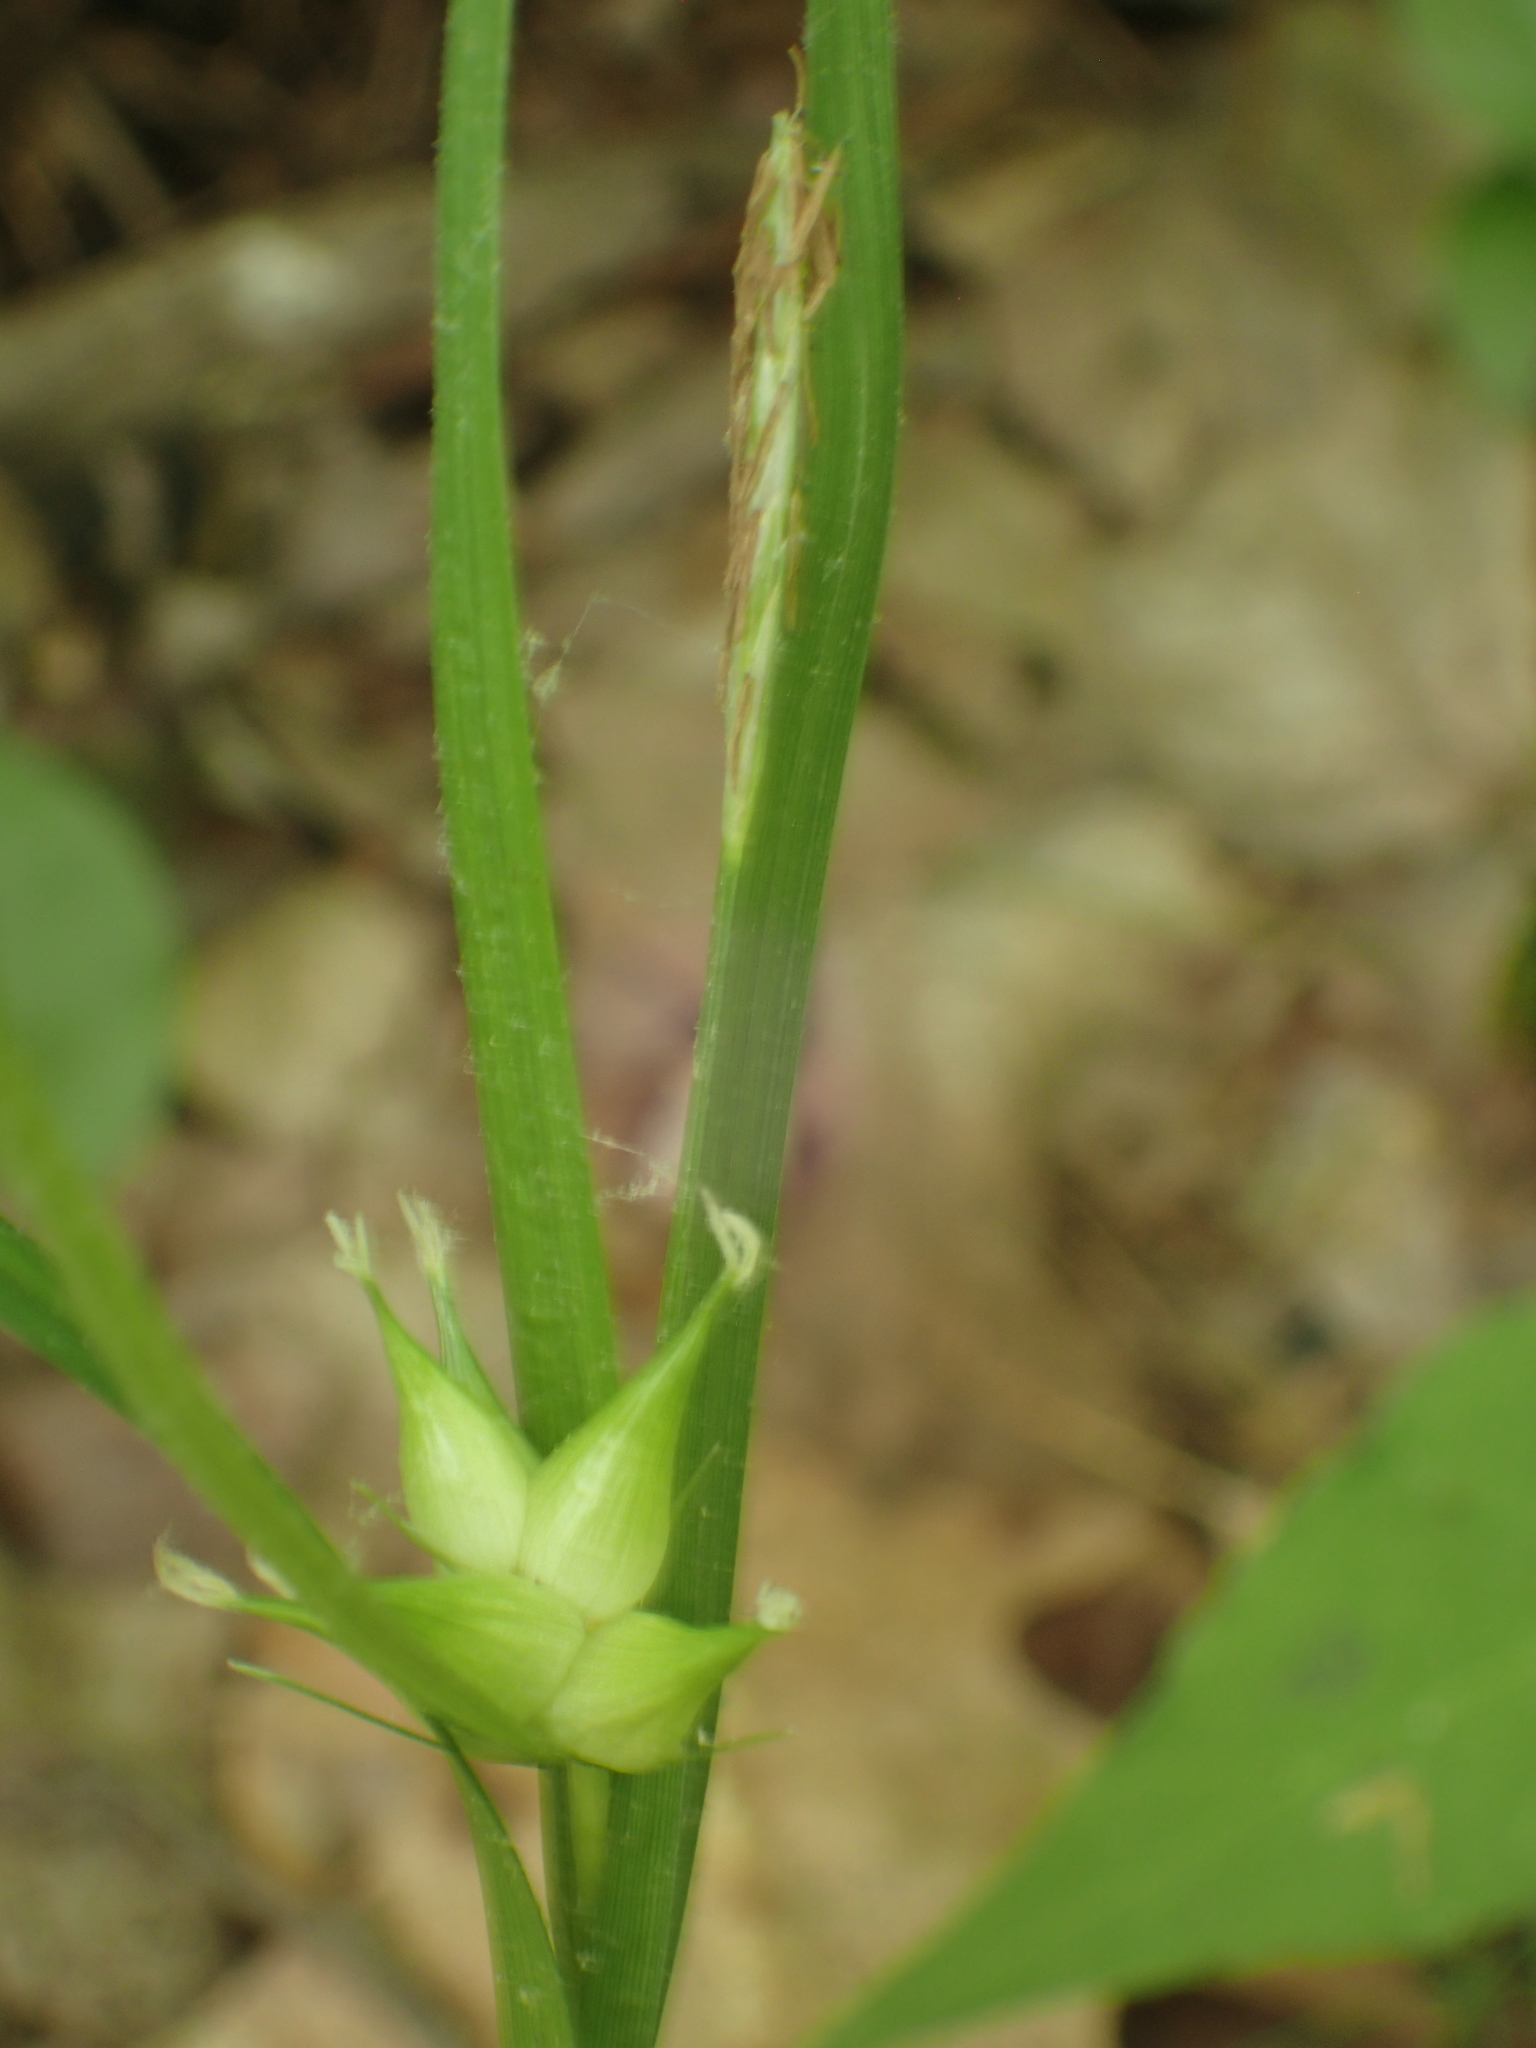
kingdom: Plantae
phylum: Tracheophyta
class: Liliopsida
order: Poales
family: Cyperaceae
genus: Carex
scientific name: Carex intumescens
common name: Greater bladder sedge
